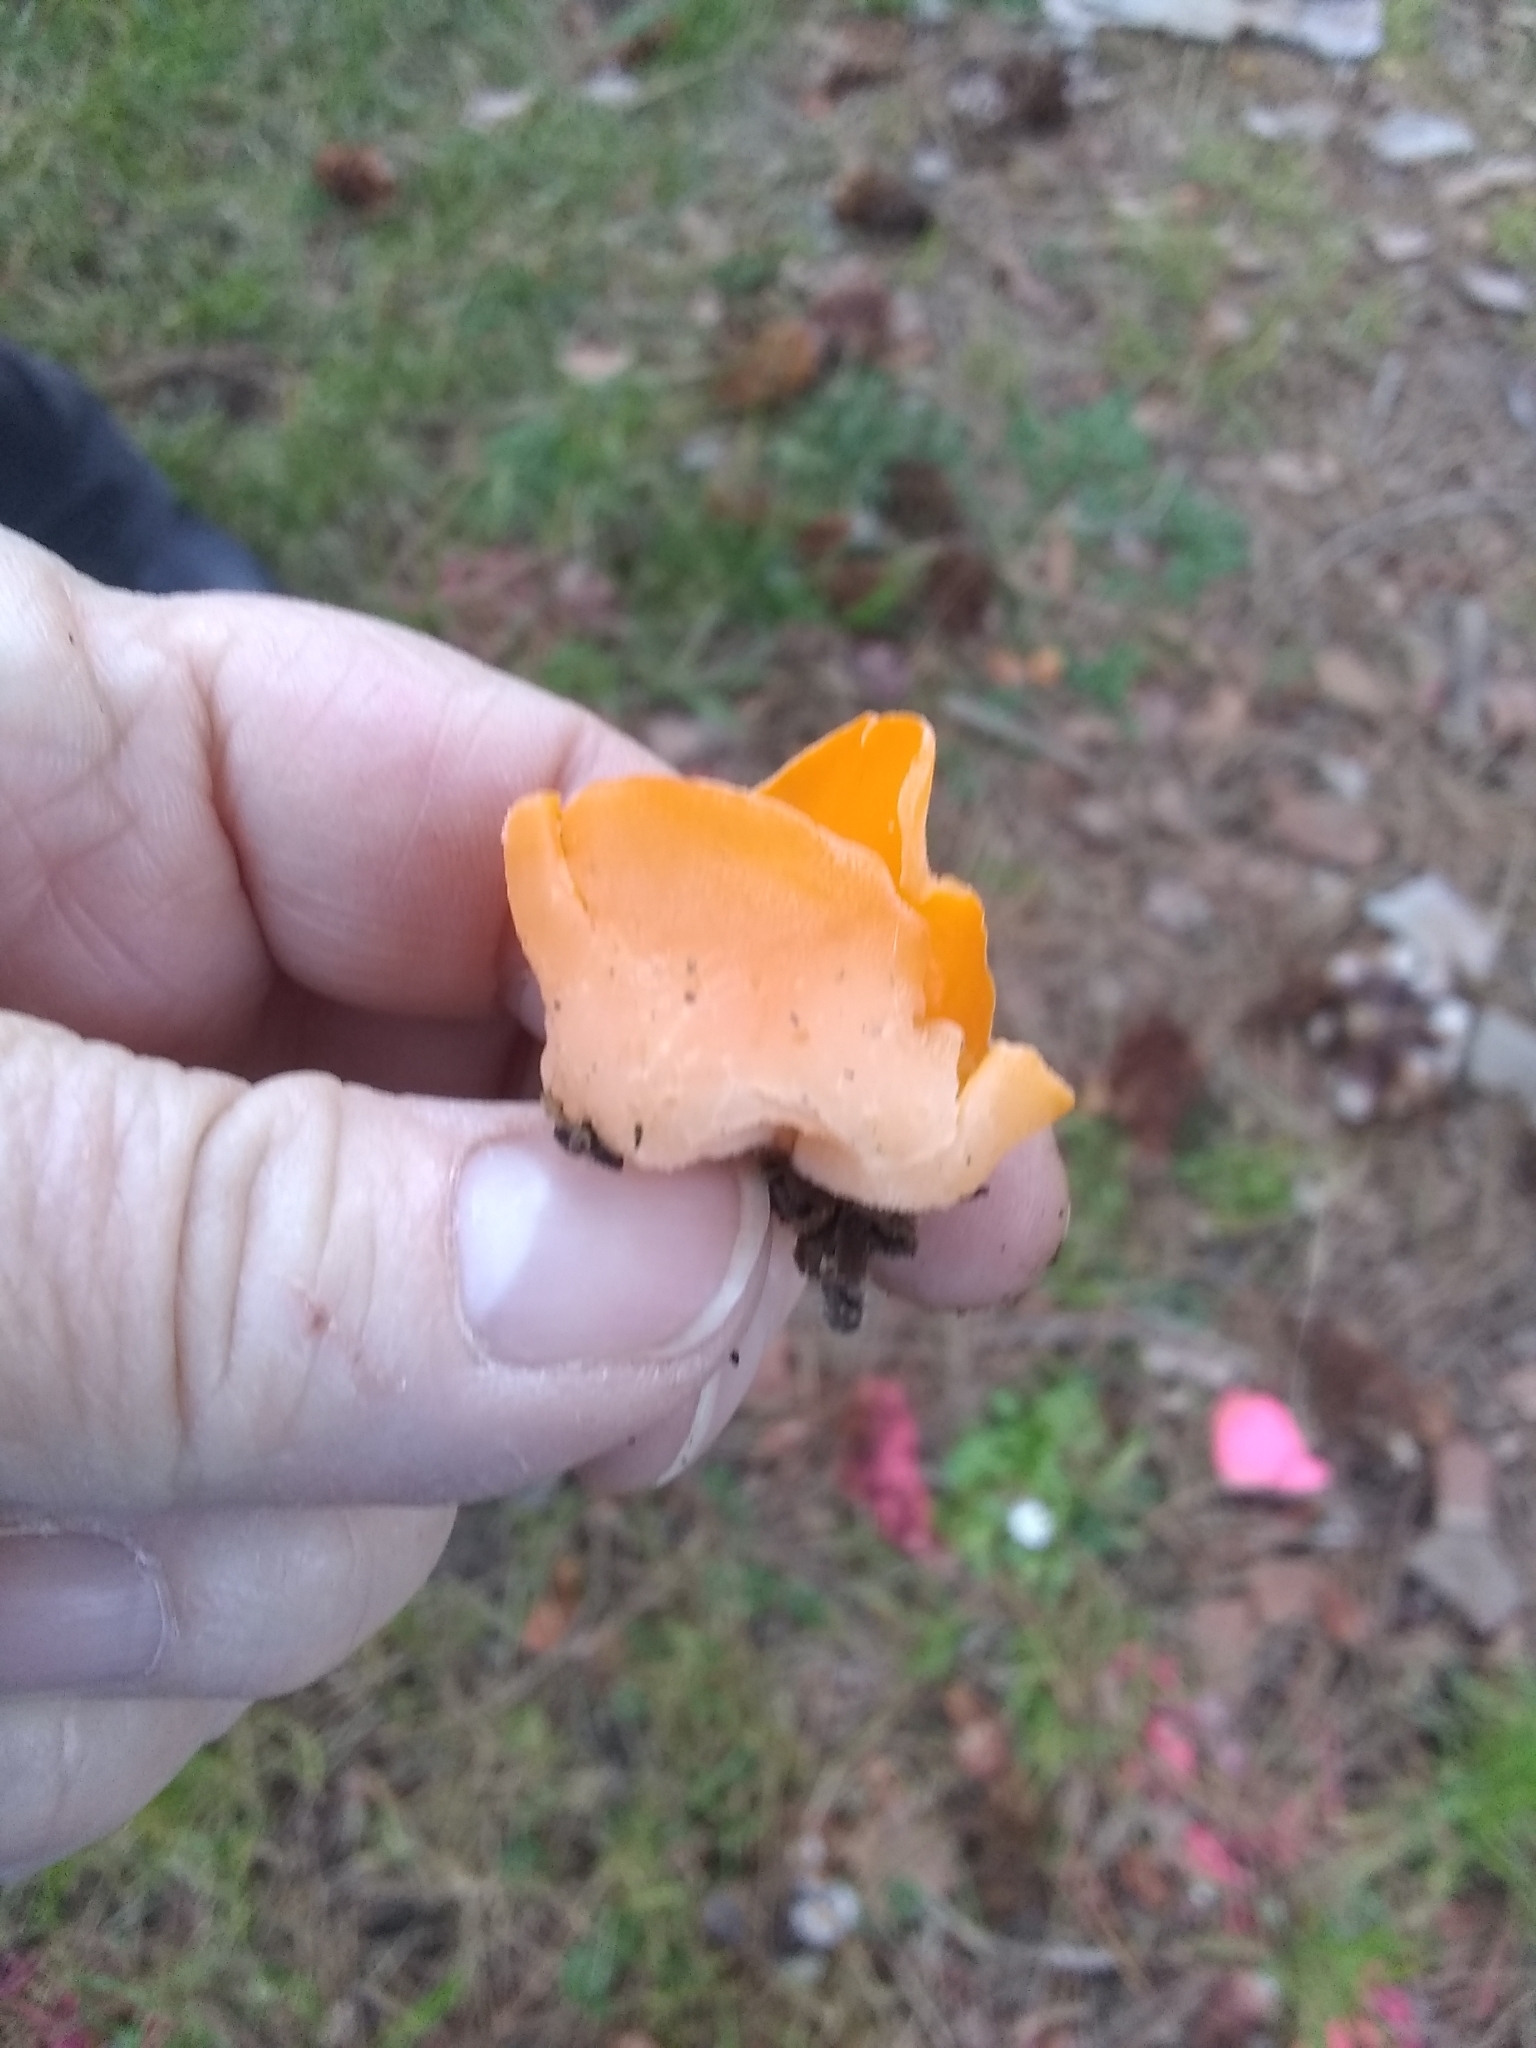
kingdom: Fungi
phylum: Ascomycota
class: Pezizomycetes
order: Pezizales
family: Pyronemataceae
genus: Aleuria
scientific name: Aleuria aurantia
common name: Orange peel fungus
